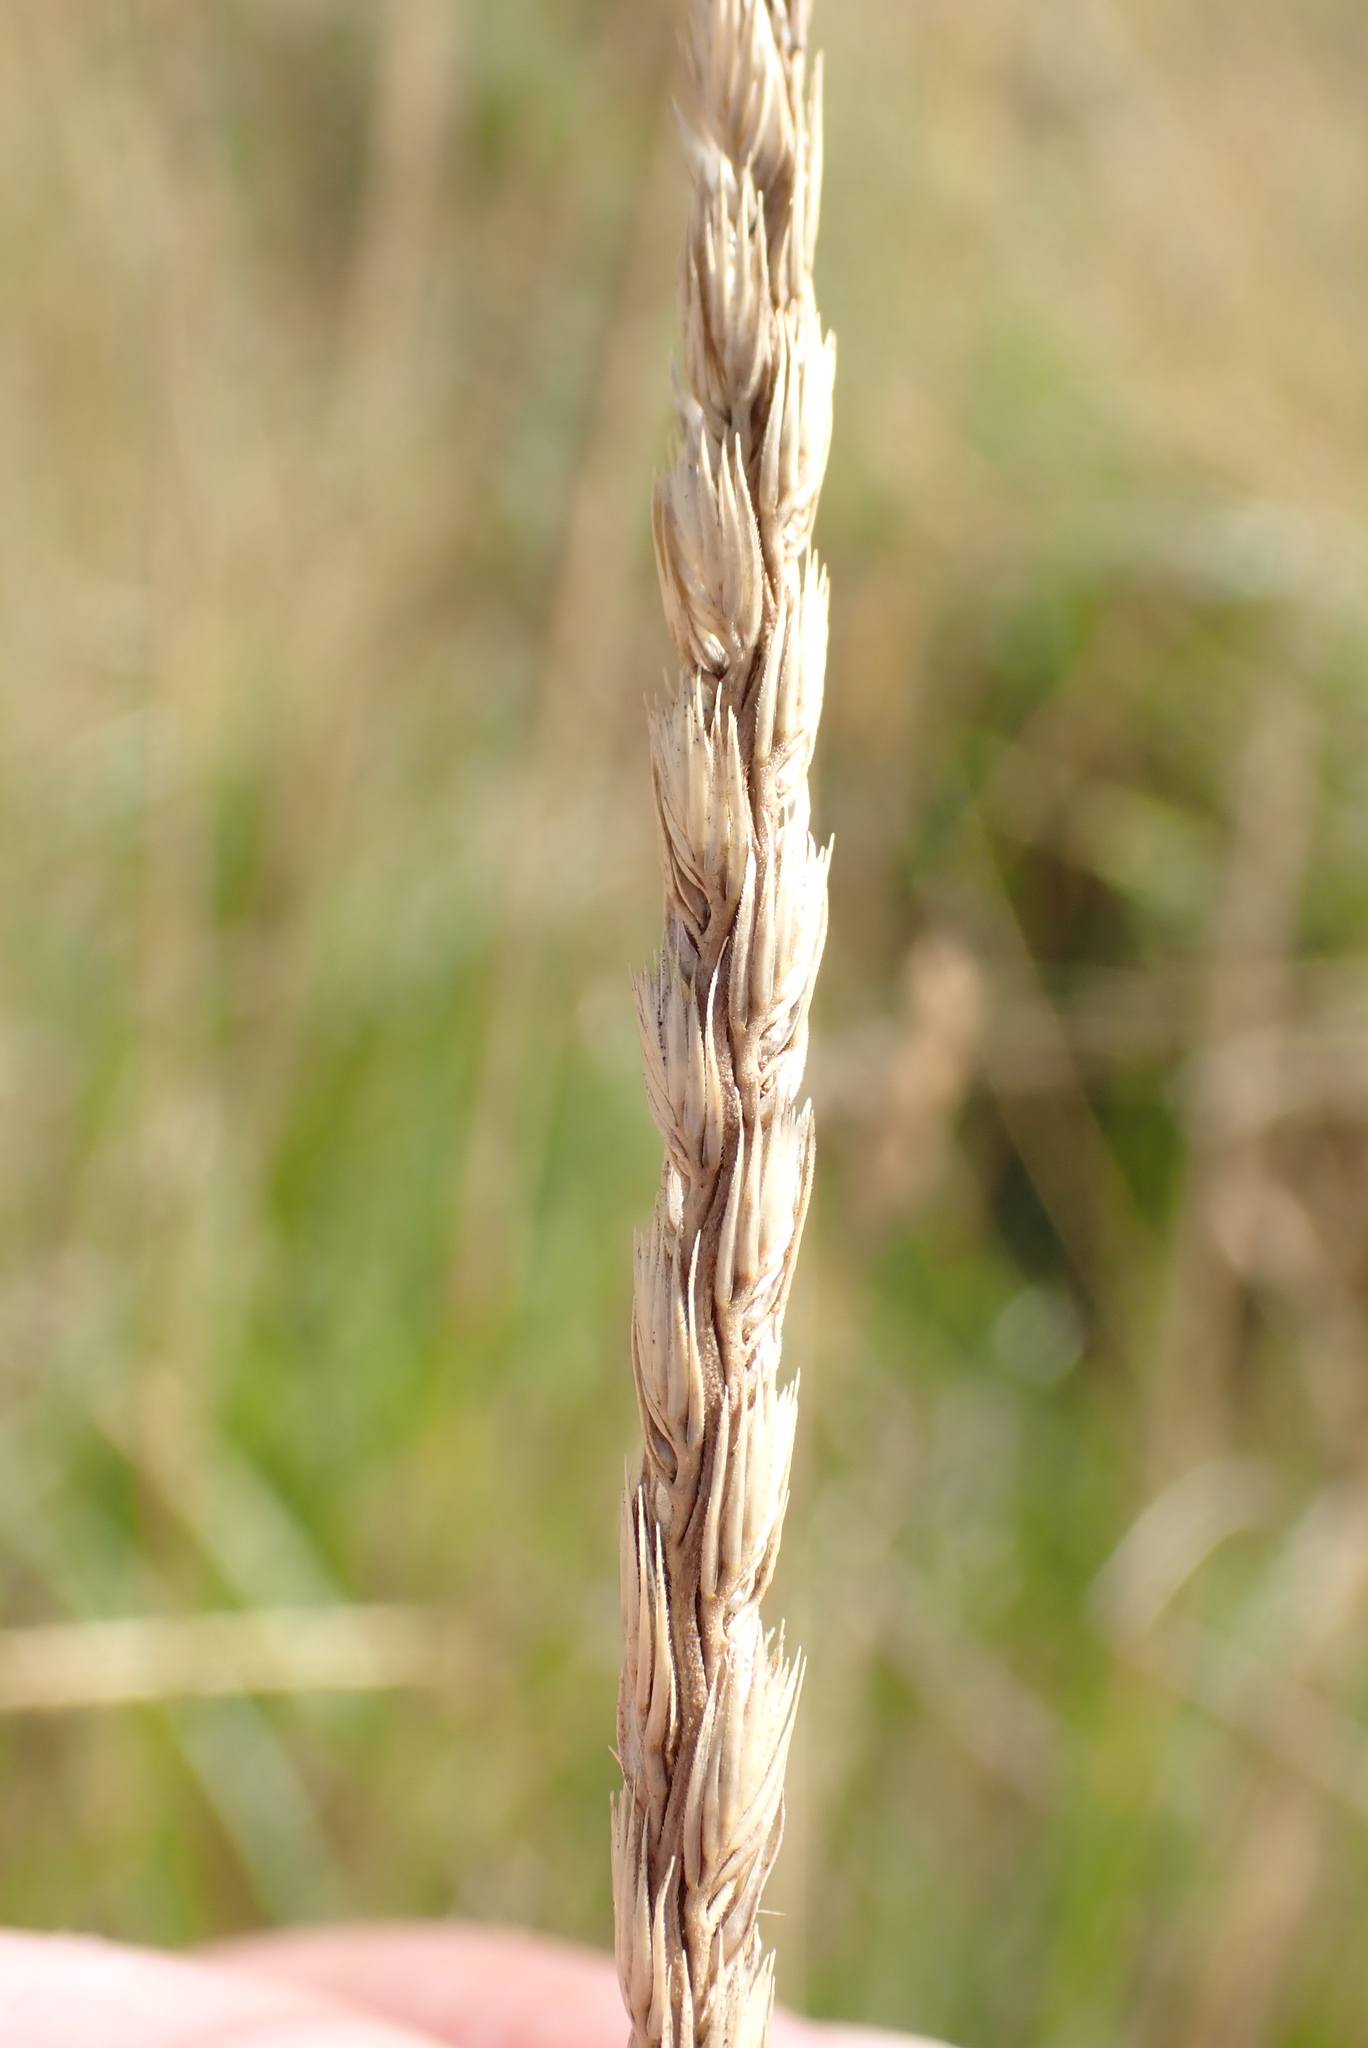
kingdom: Plantae
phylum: Tracheophyta
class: Liliopsida
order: Poales
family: Poaceae
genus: Cynosurus
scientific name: Cynosurus cristatus
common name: Crested dog's-tail
